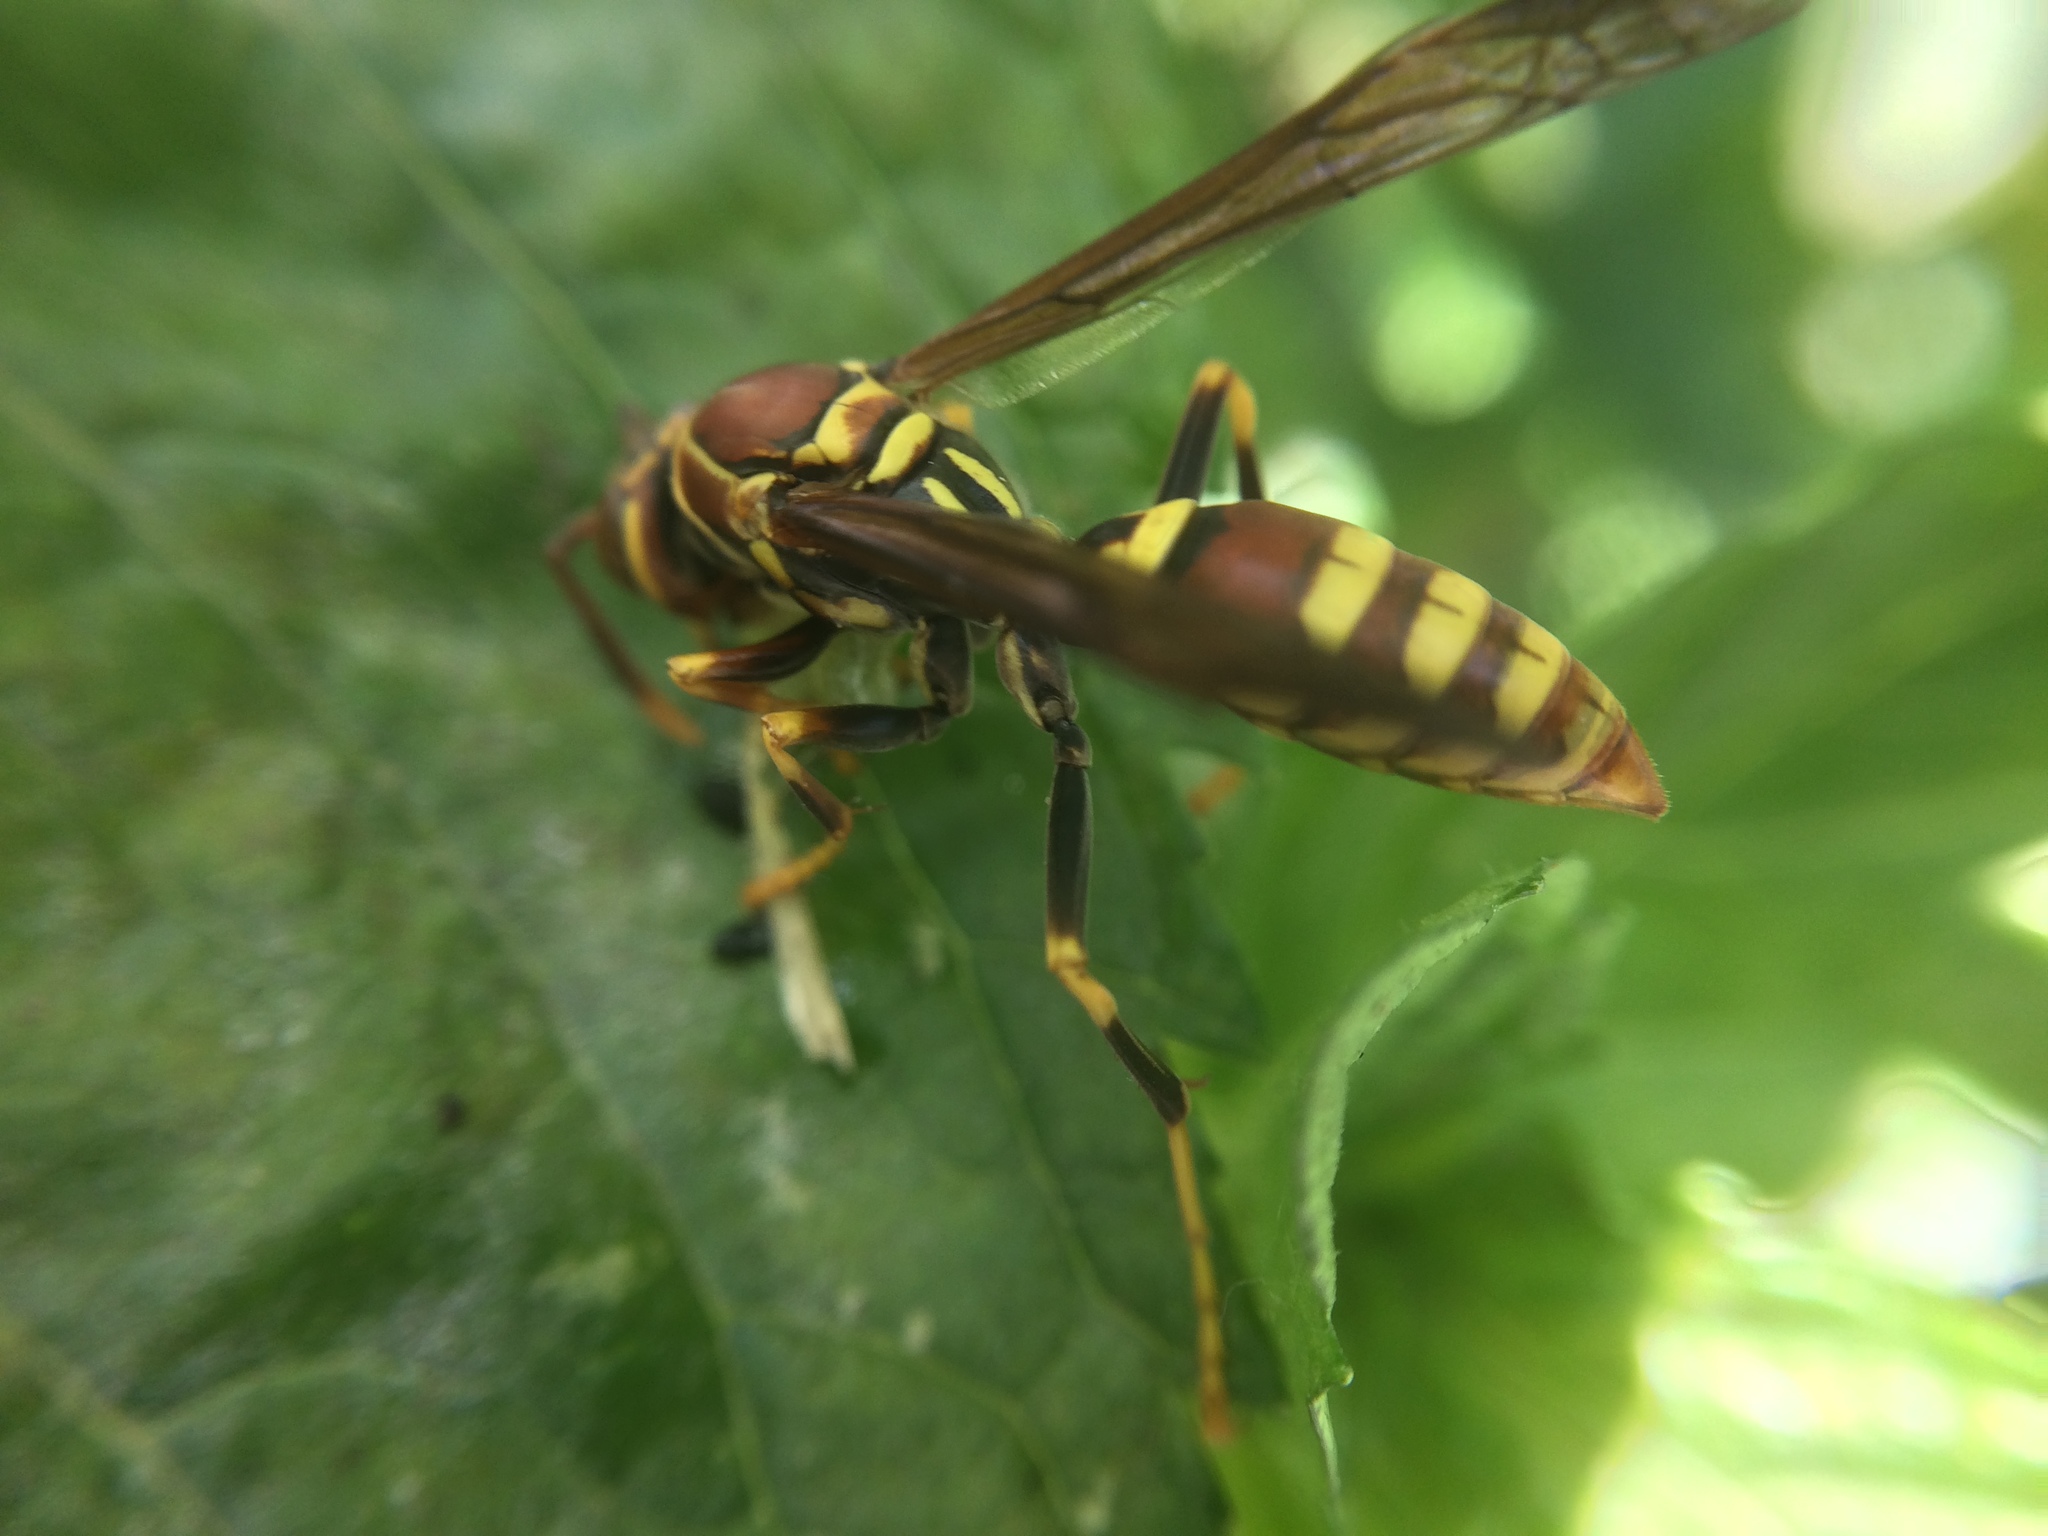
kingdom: Animalia
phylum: Arthropoda
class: Insecta
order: Hymenoptera
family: Eumenidae
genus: Polistes
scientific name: Polistes exclamans
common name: Paper wasp
